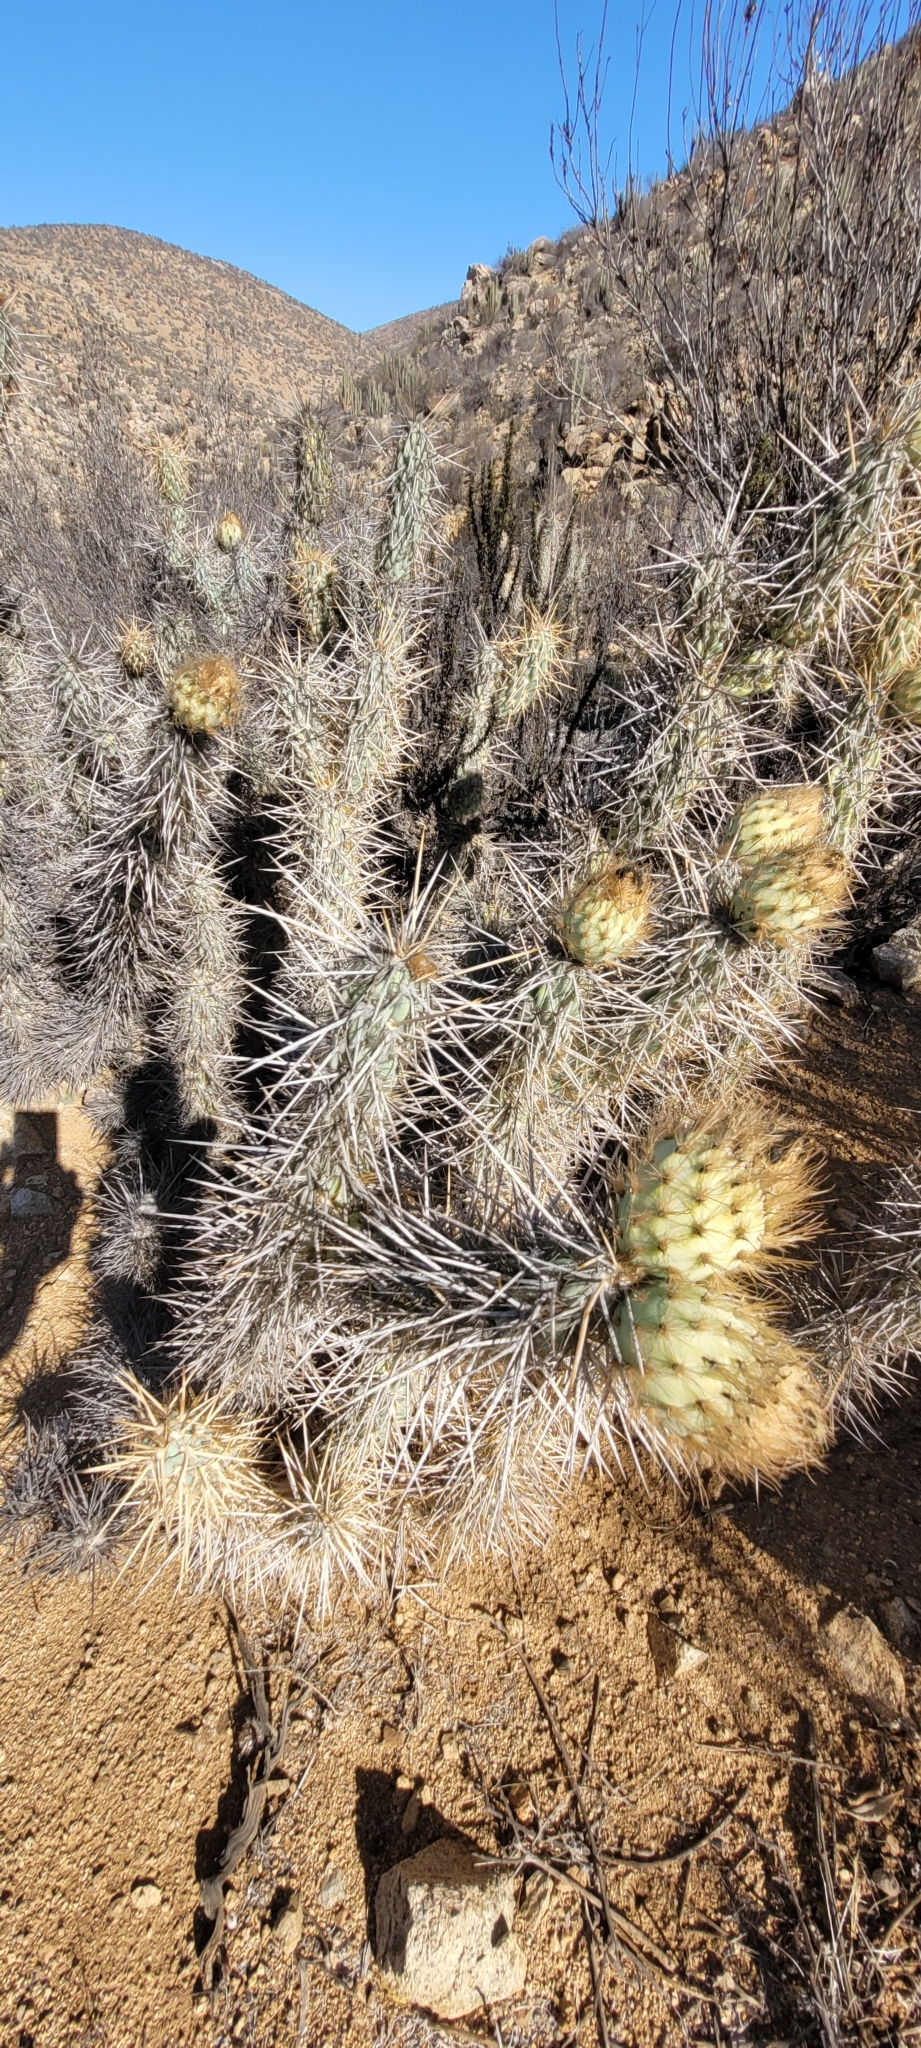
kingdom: Plantae
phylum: Tracheophyta
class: Magnoliopsida
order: Caryophyllales
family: Cactaceae
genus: Miqueliopuntia
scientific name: Miqueliopuntia miquelii
